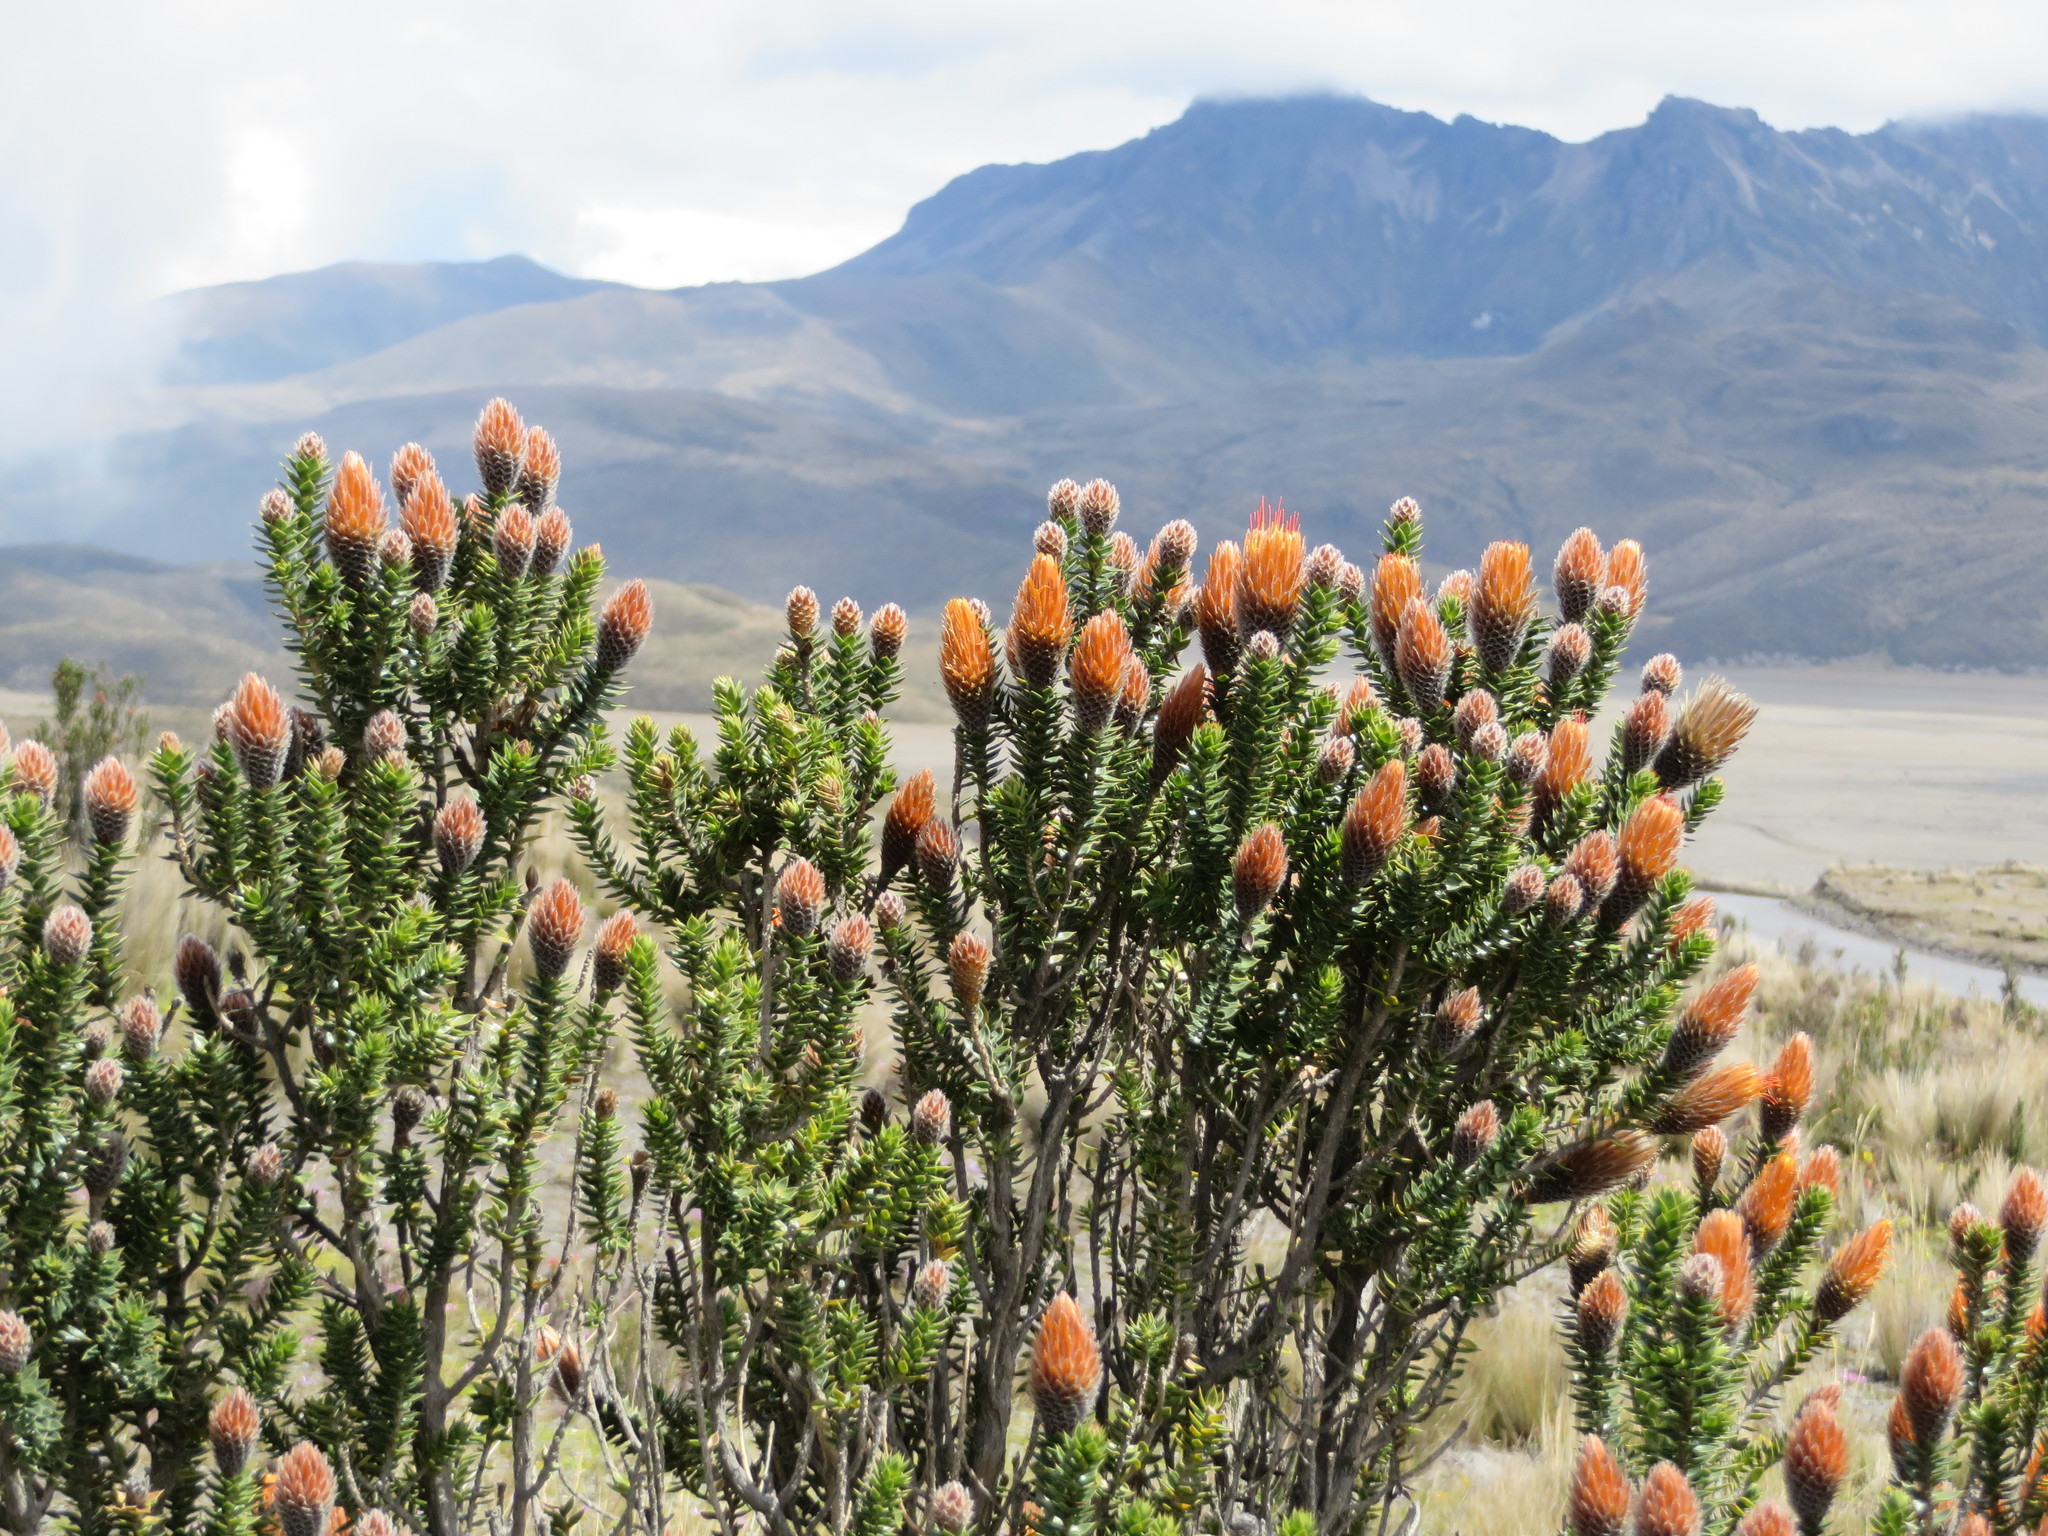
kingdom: Plantae
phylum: Tracheophyta
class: Magnoliopsida
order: Asterales
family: Asteraceae
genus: Chuquiraga
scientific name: Chuquiraga jussieui
